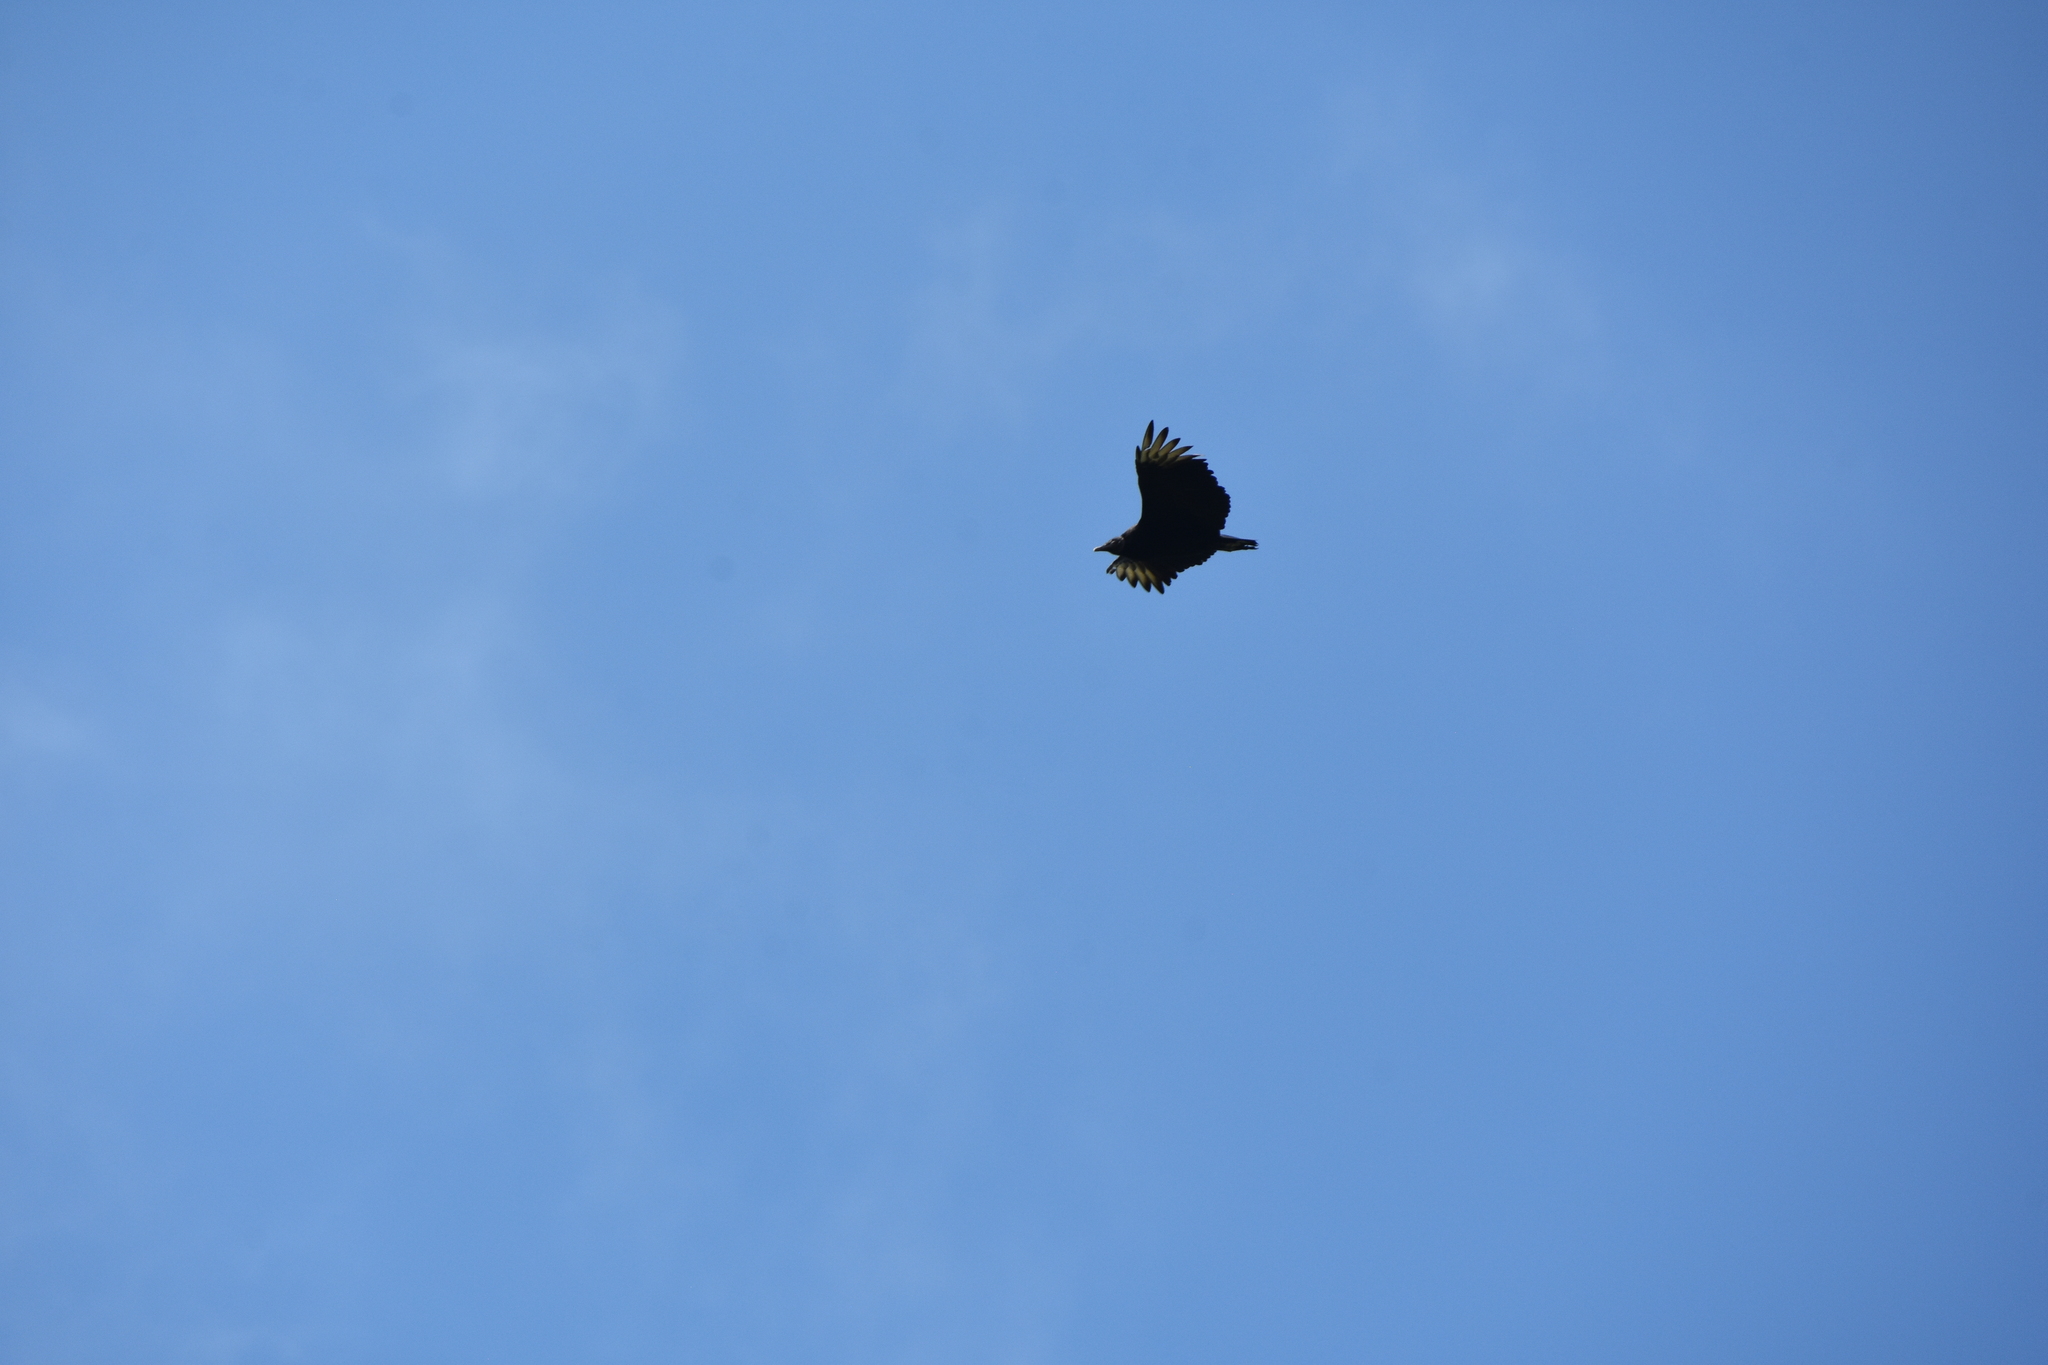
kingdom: Animalia
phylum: Chordata
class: Aves
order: Accipitriformes
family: Cathartidae
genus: Coragyps
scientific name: Coragyps atratus
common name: Black vulture
